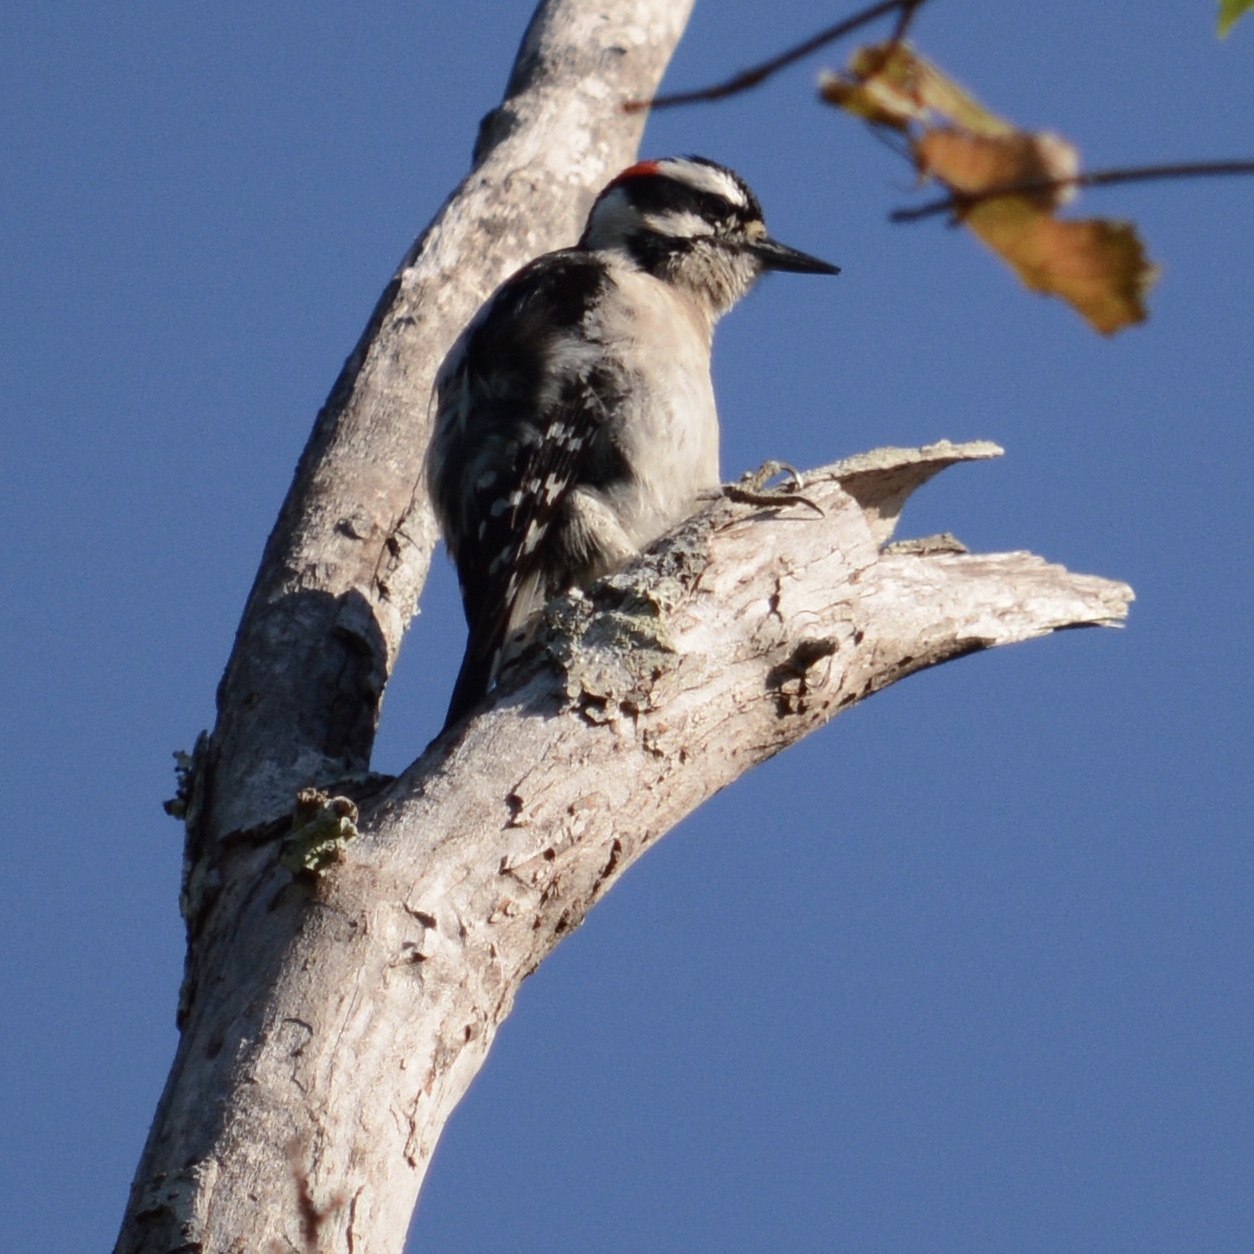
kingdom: Animalia
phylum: Chordata
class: Aves
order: Piciformes
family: Picidae
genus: Dryobates
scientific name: Dryobates pubescens
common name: Downy woodpecker
